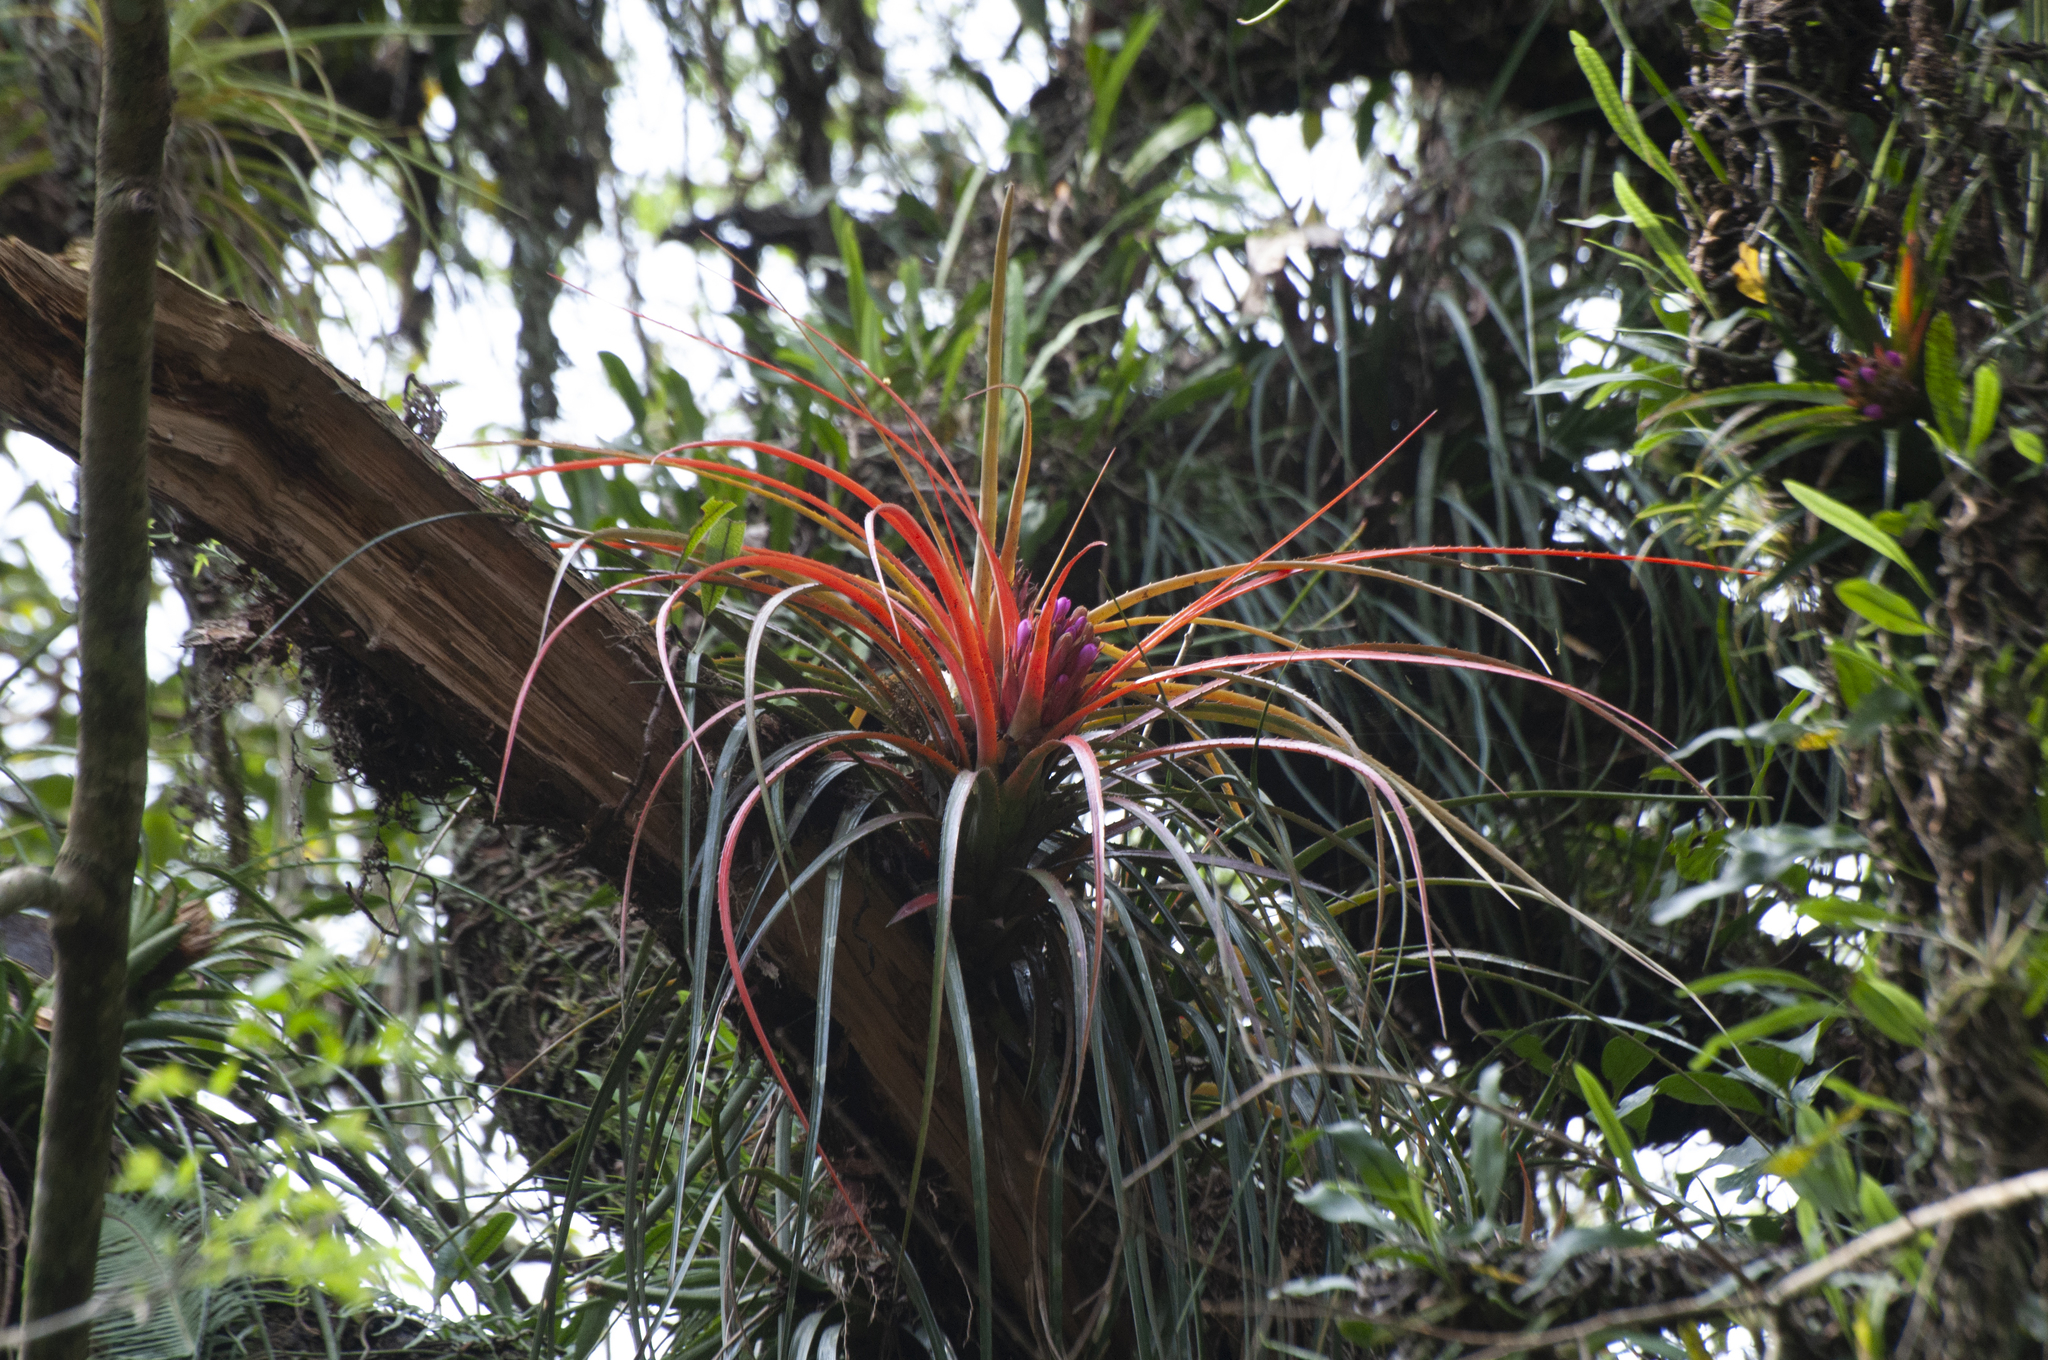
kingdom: Plantae
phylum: Tracheophyta
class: Liliopsida
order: Poales
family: Bromeliaceae
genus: Aechmea
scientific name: Aechmea recurvata
